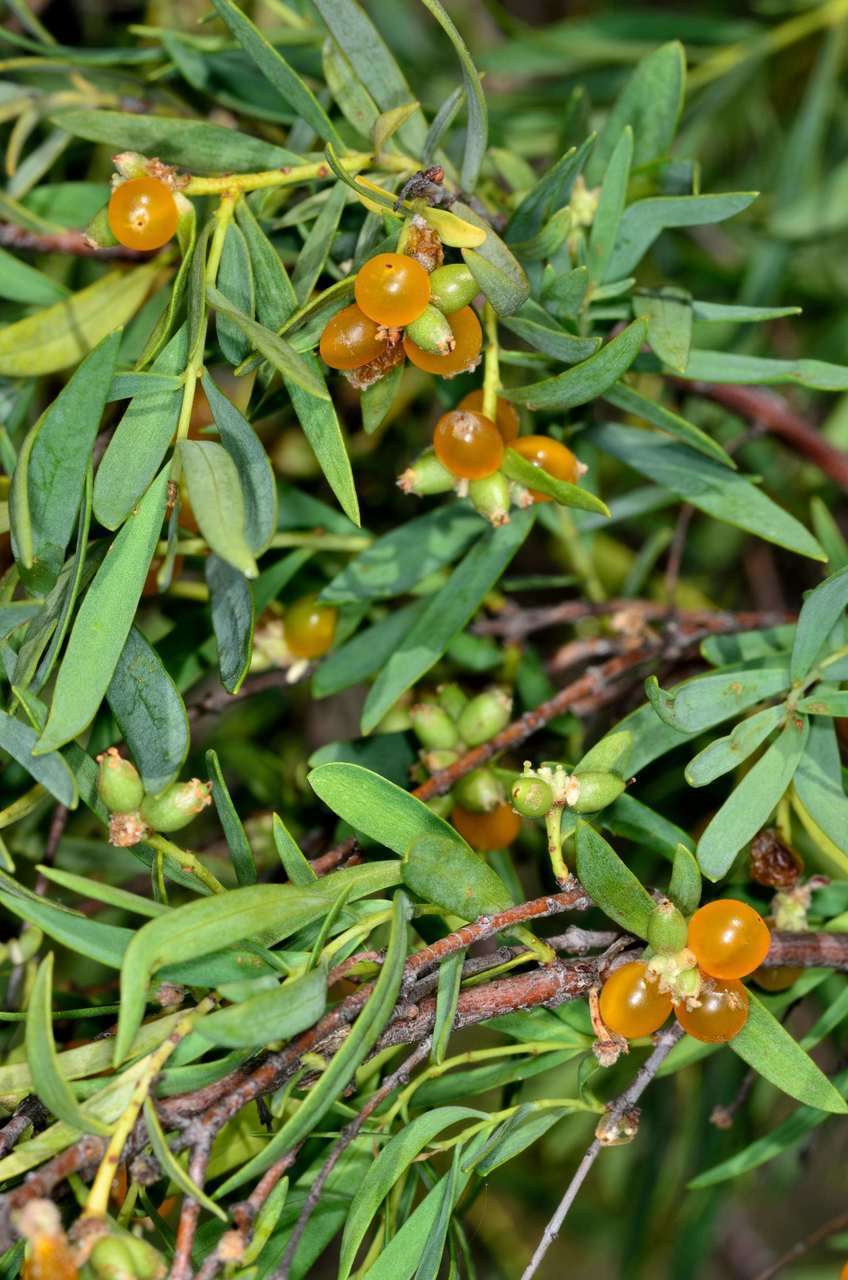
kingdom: Plantae
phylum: Tracheophyta
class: Magnoliopsida
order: Malvales
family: Thymelaeaceae
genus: Pimelea
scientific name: Pimelea microcephala
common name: Mallee riceflower
